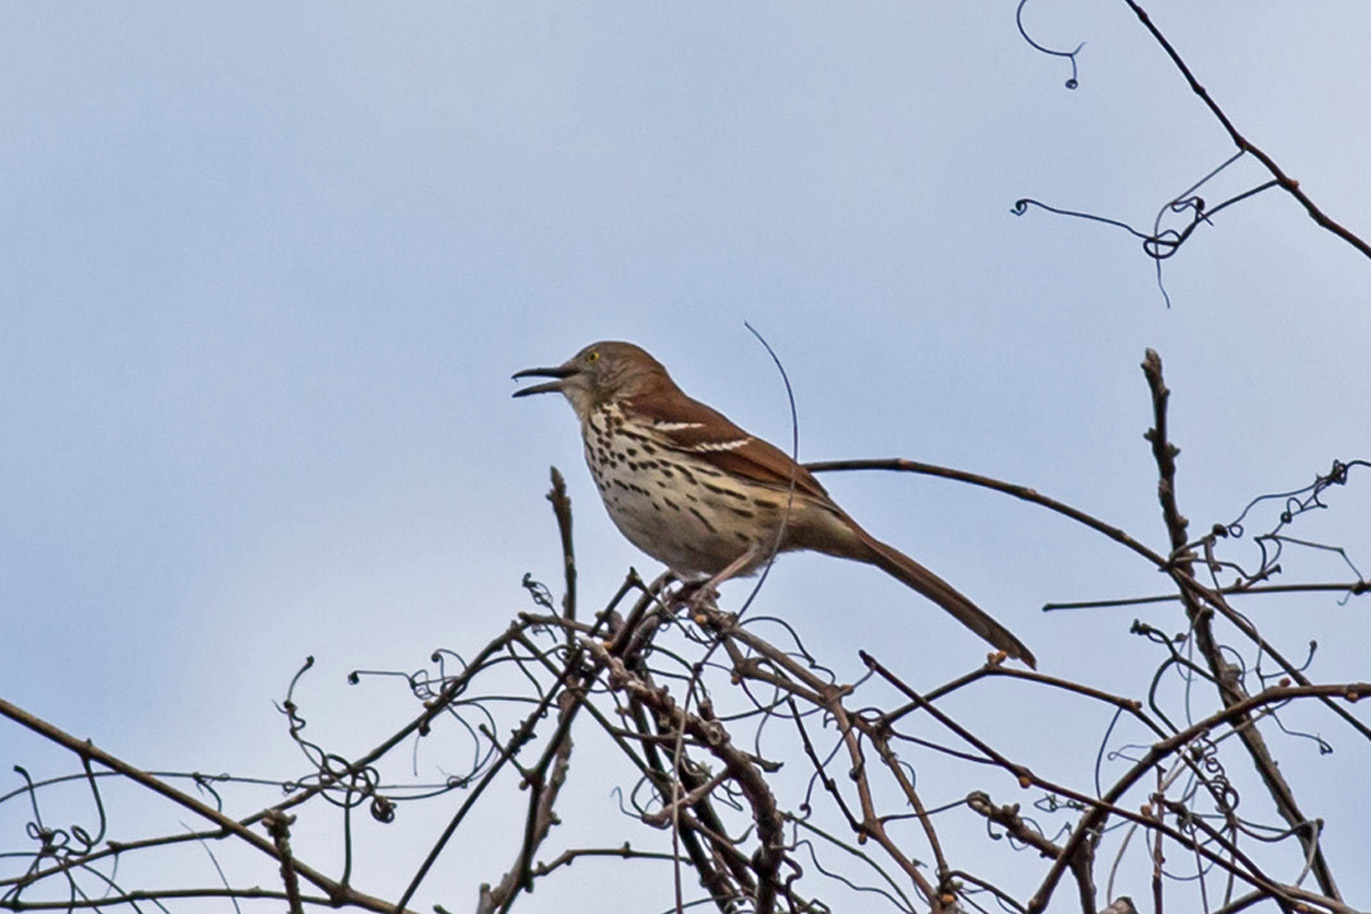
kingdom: Animalia
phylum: Chordata
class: Aves
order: Passeriformes
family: Mimidae
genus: Toxostoma
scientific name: Toxostoma rufum
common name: Brown thrasher
